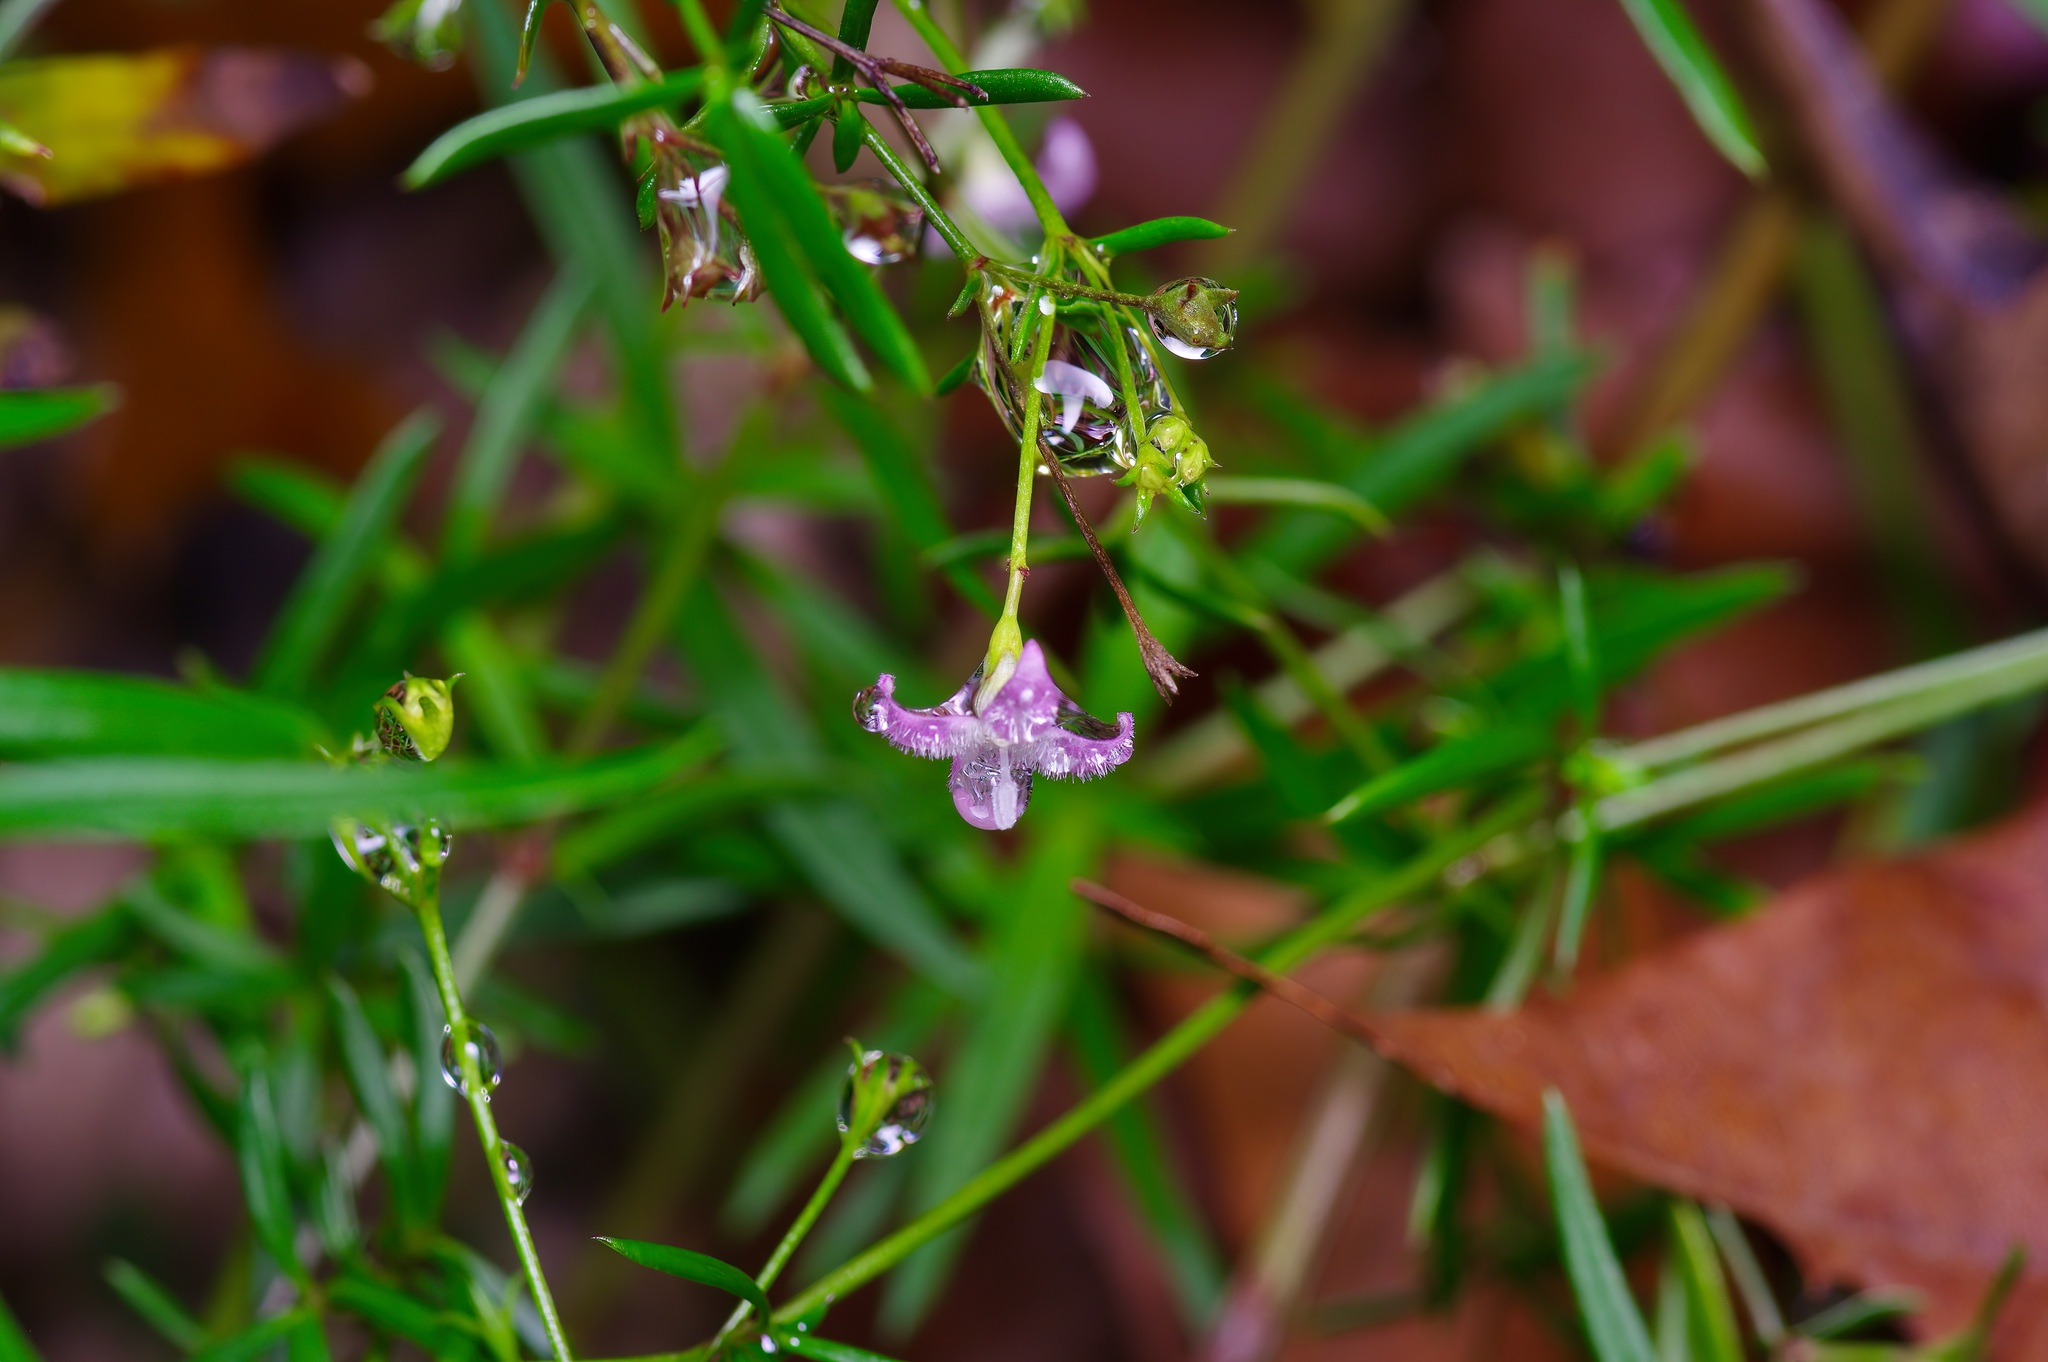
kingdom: Plantae
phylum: Tracheophyta
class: Magnoliopsida
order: Gentianales
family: Rubiaceae
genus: Stenaria
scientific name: Stenaria nigricans
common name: Diamondflowers
